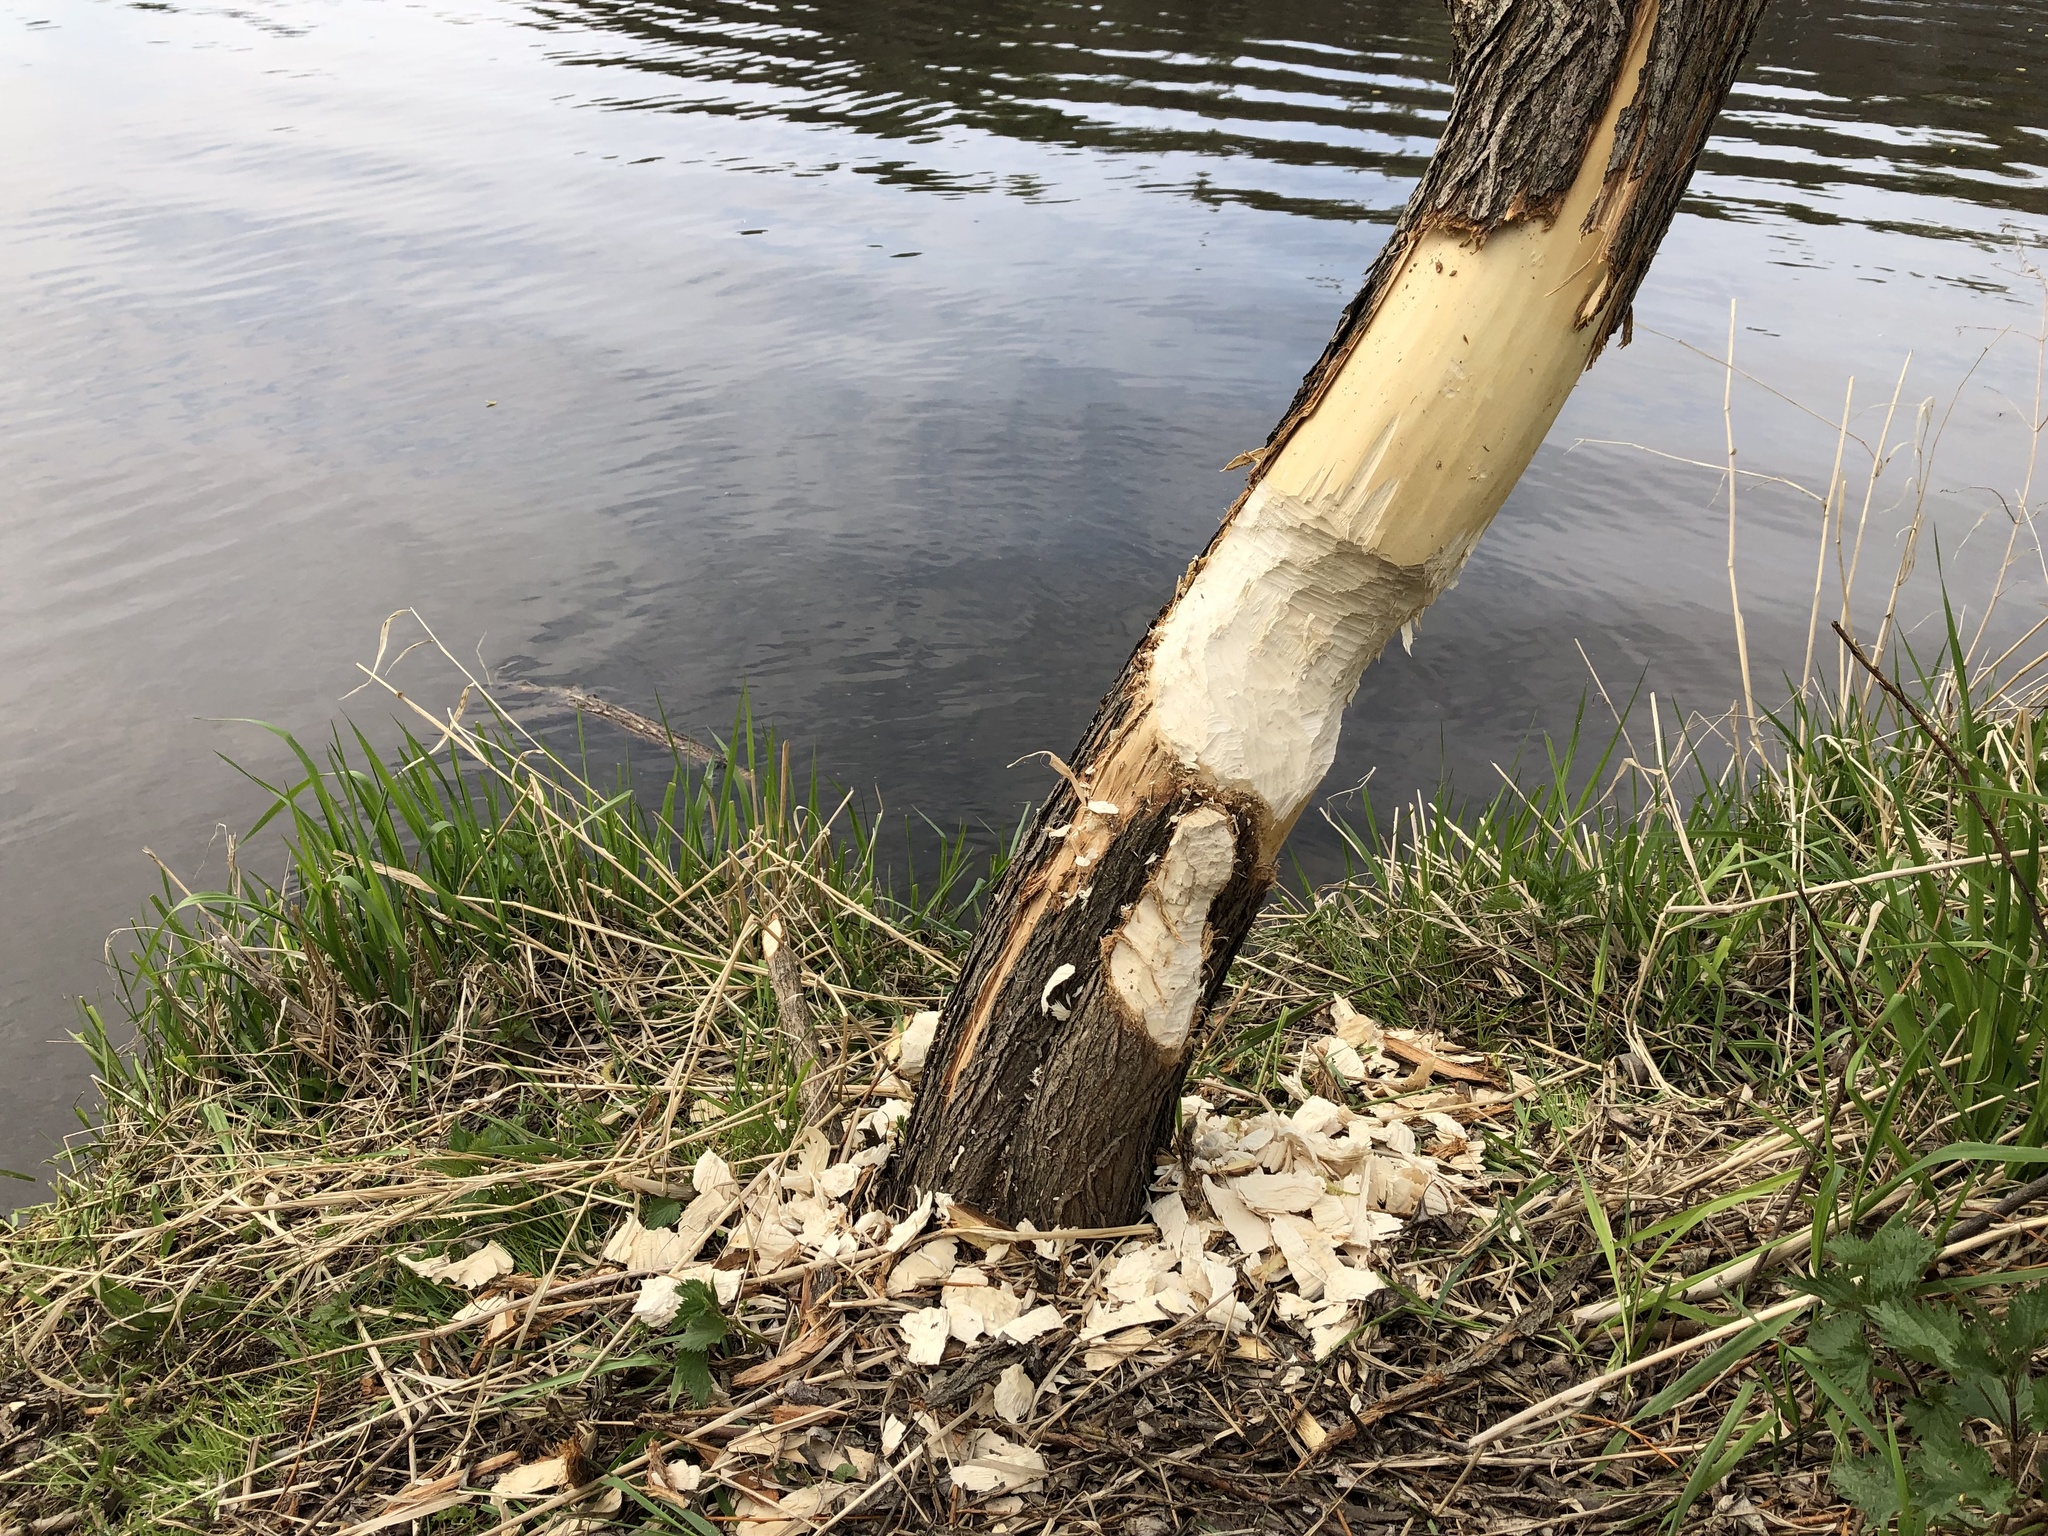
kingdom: Animalia
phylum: Chordata
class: Mammalia
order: Rodentia
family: Castoridae
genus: Castor
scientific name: Castor fiber
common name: Eurasian beaver
